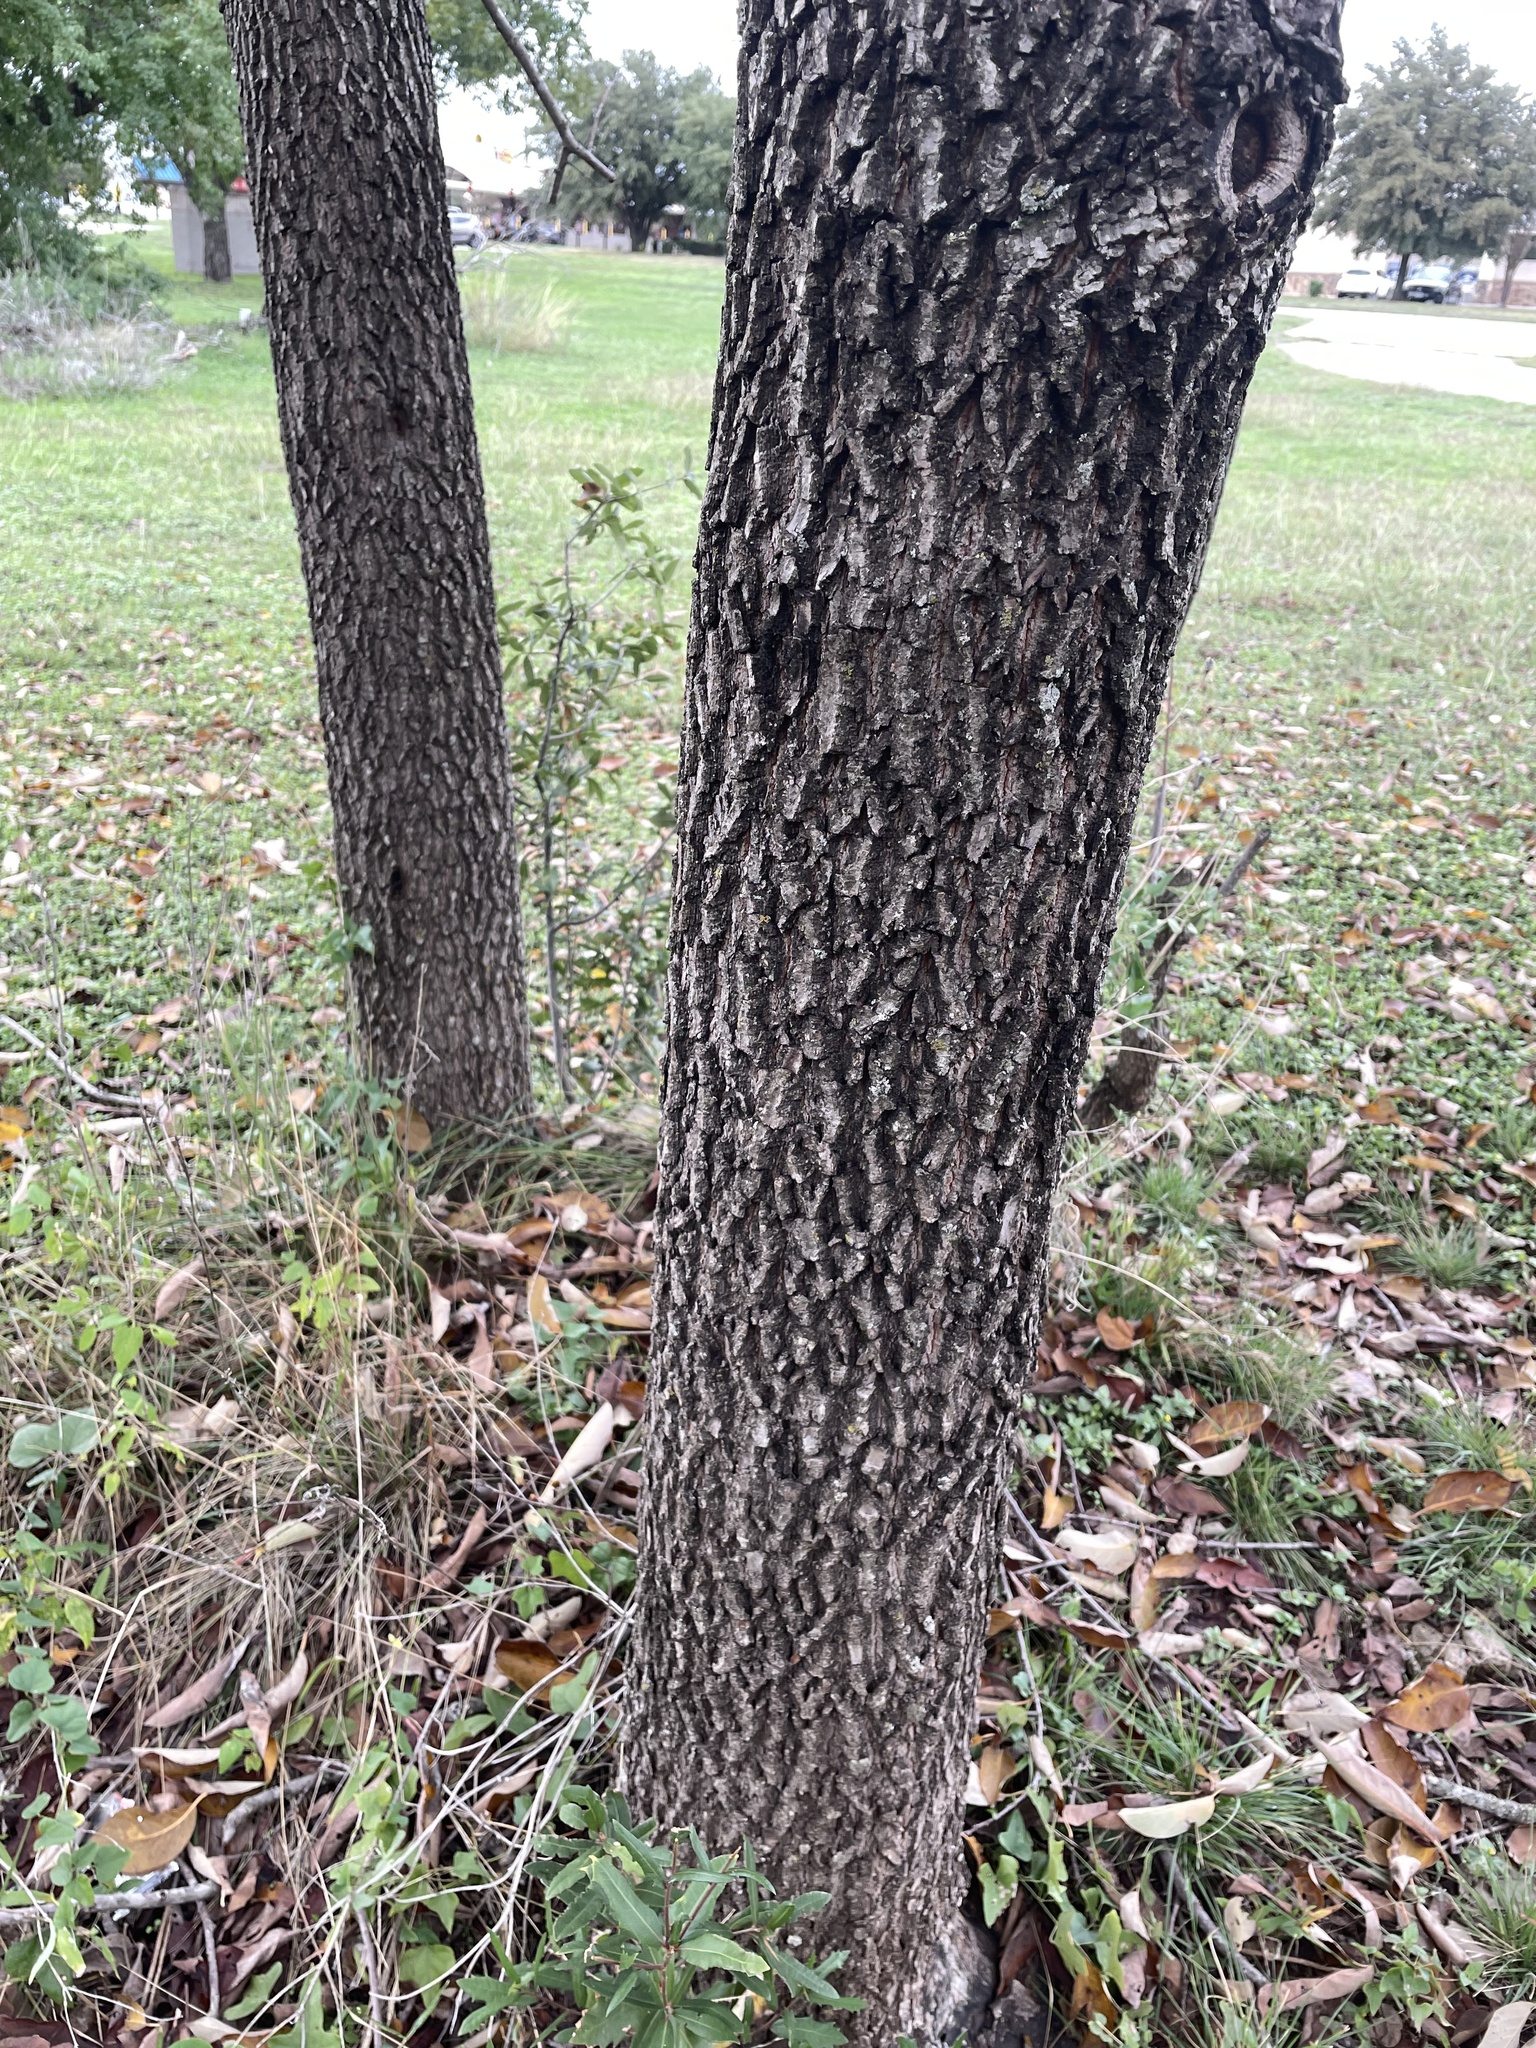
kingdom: Plantae
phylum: Tracheophyta
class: Magnoliopsida
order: Ericales
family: Ebenaceae
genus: Diospyros
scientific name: Diospyros virginiana
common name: Persimmon
